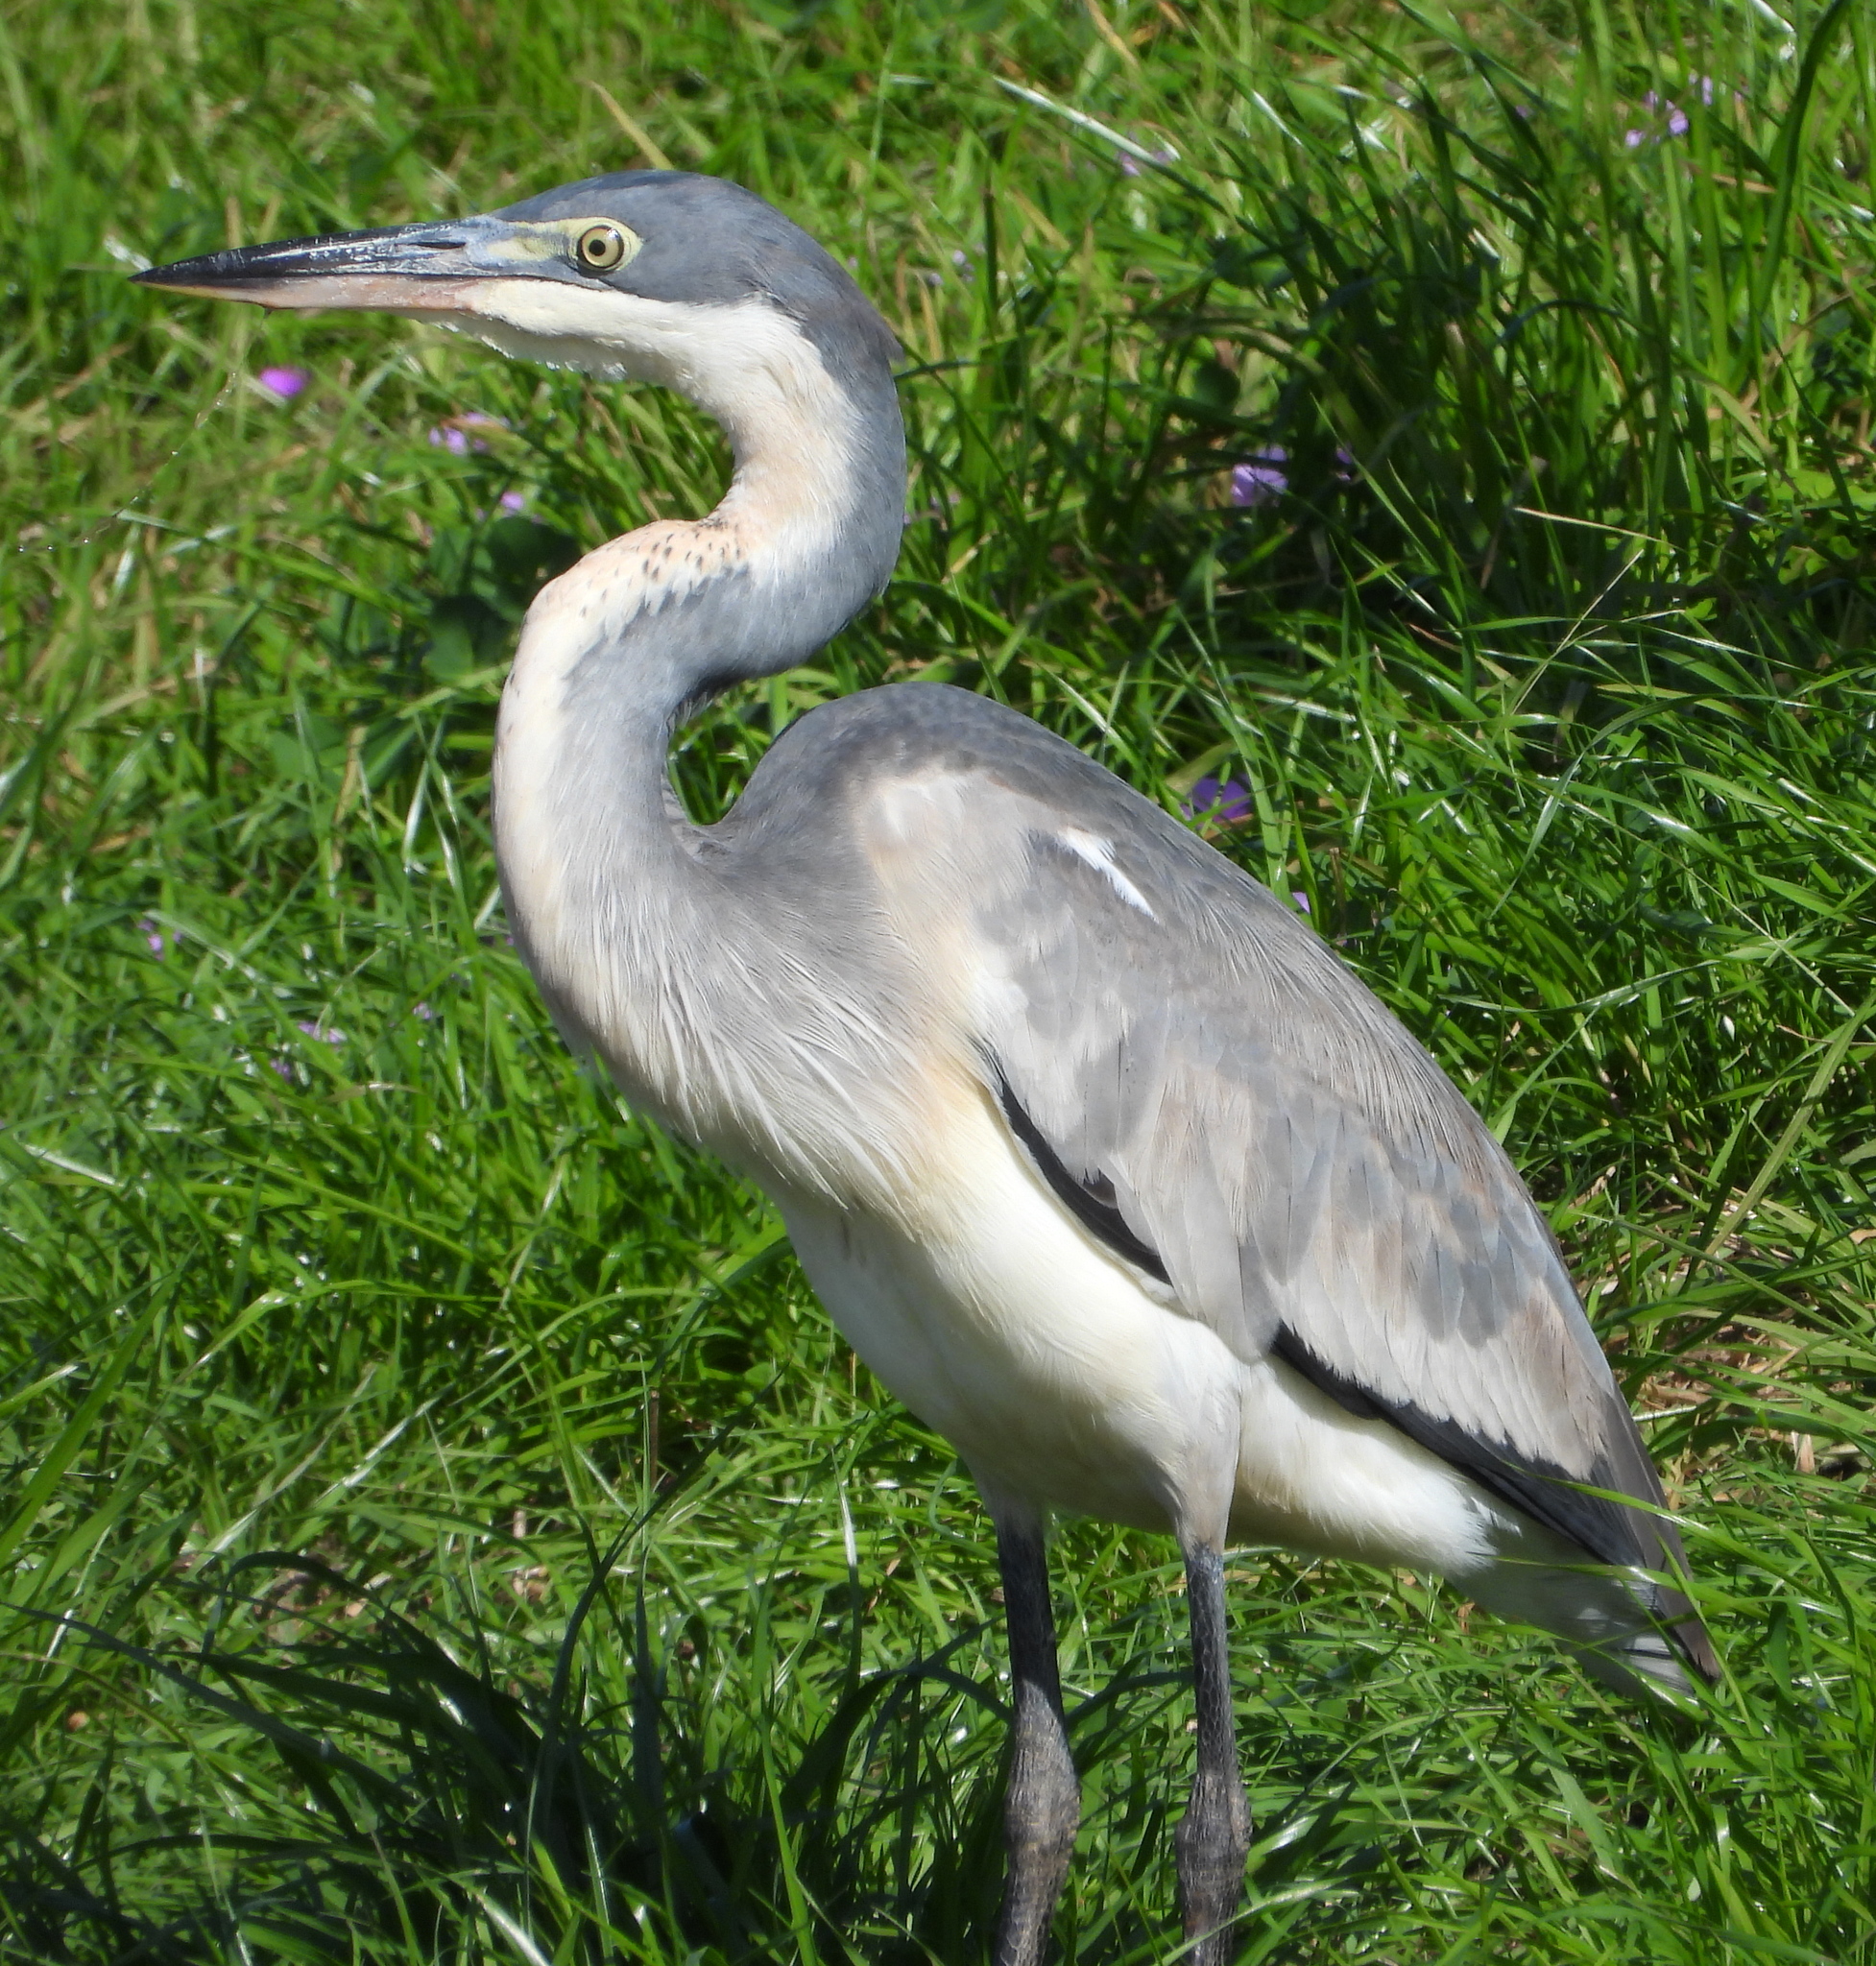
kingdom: Animalia
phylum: Chordata
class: Aves
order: Pelecaniformes
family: Ardeidae
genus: Ardea
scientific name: Ardea melanocephala
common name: Black-headed heron
